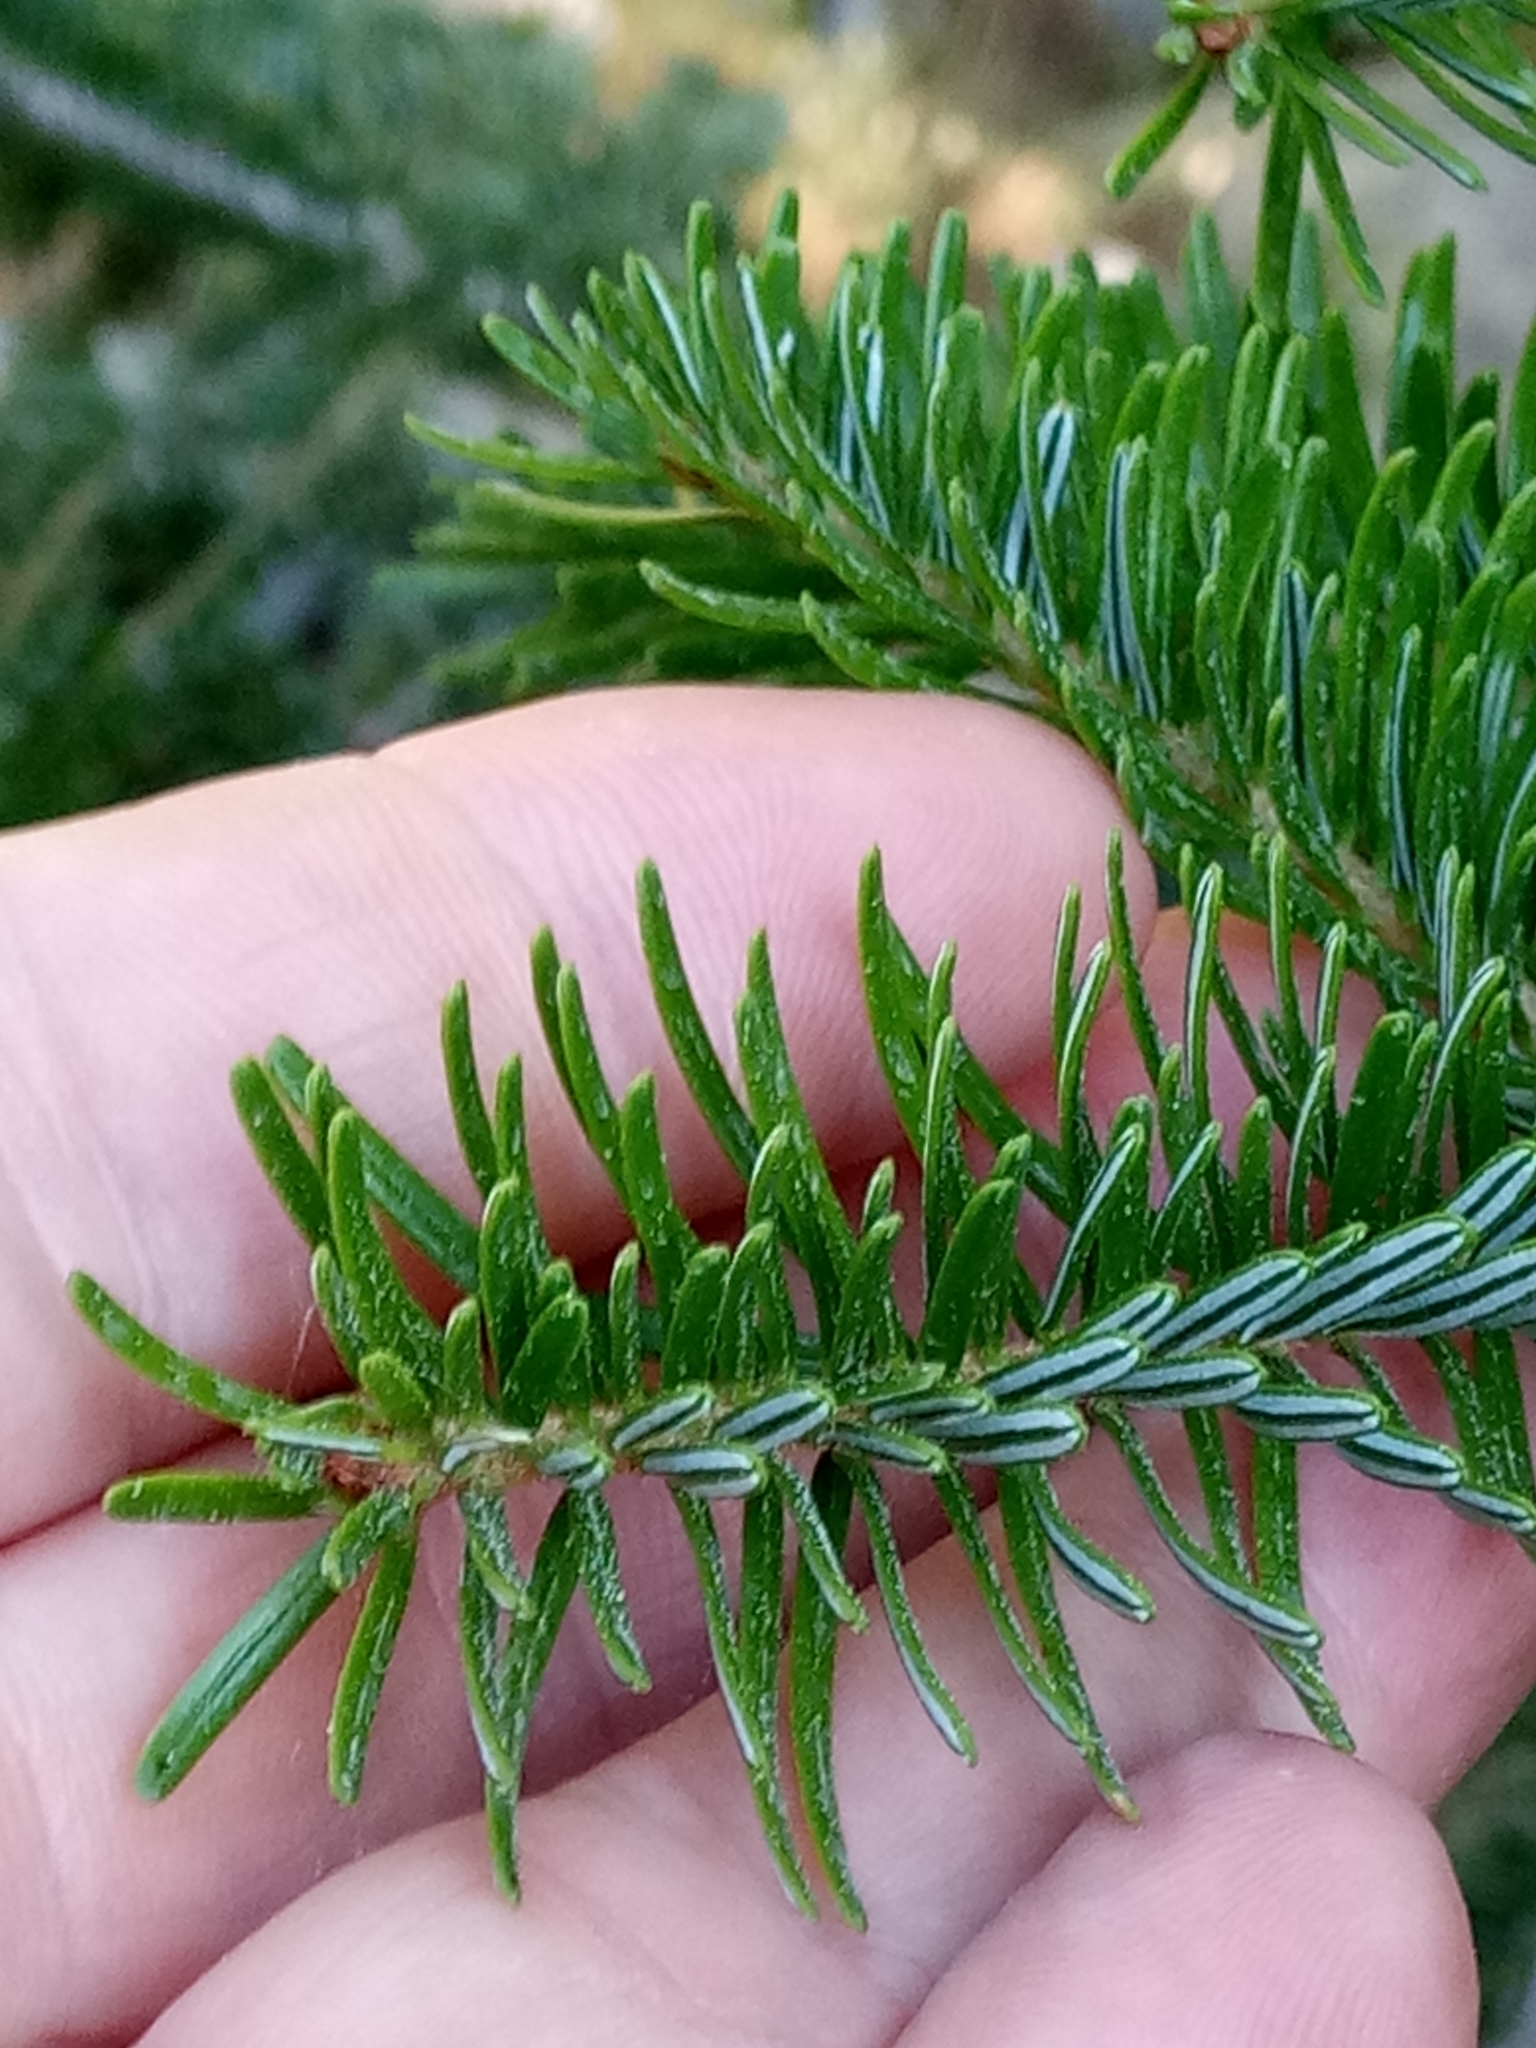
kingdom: Plantae
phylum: Tracheophyta
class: Pinopsida
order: Pinales
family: Pinaceae
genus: Abies
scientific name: Abies alba
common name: Silver fir
